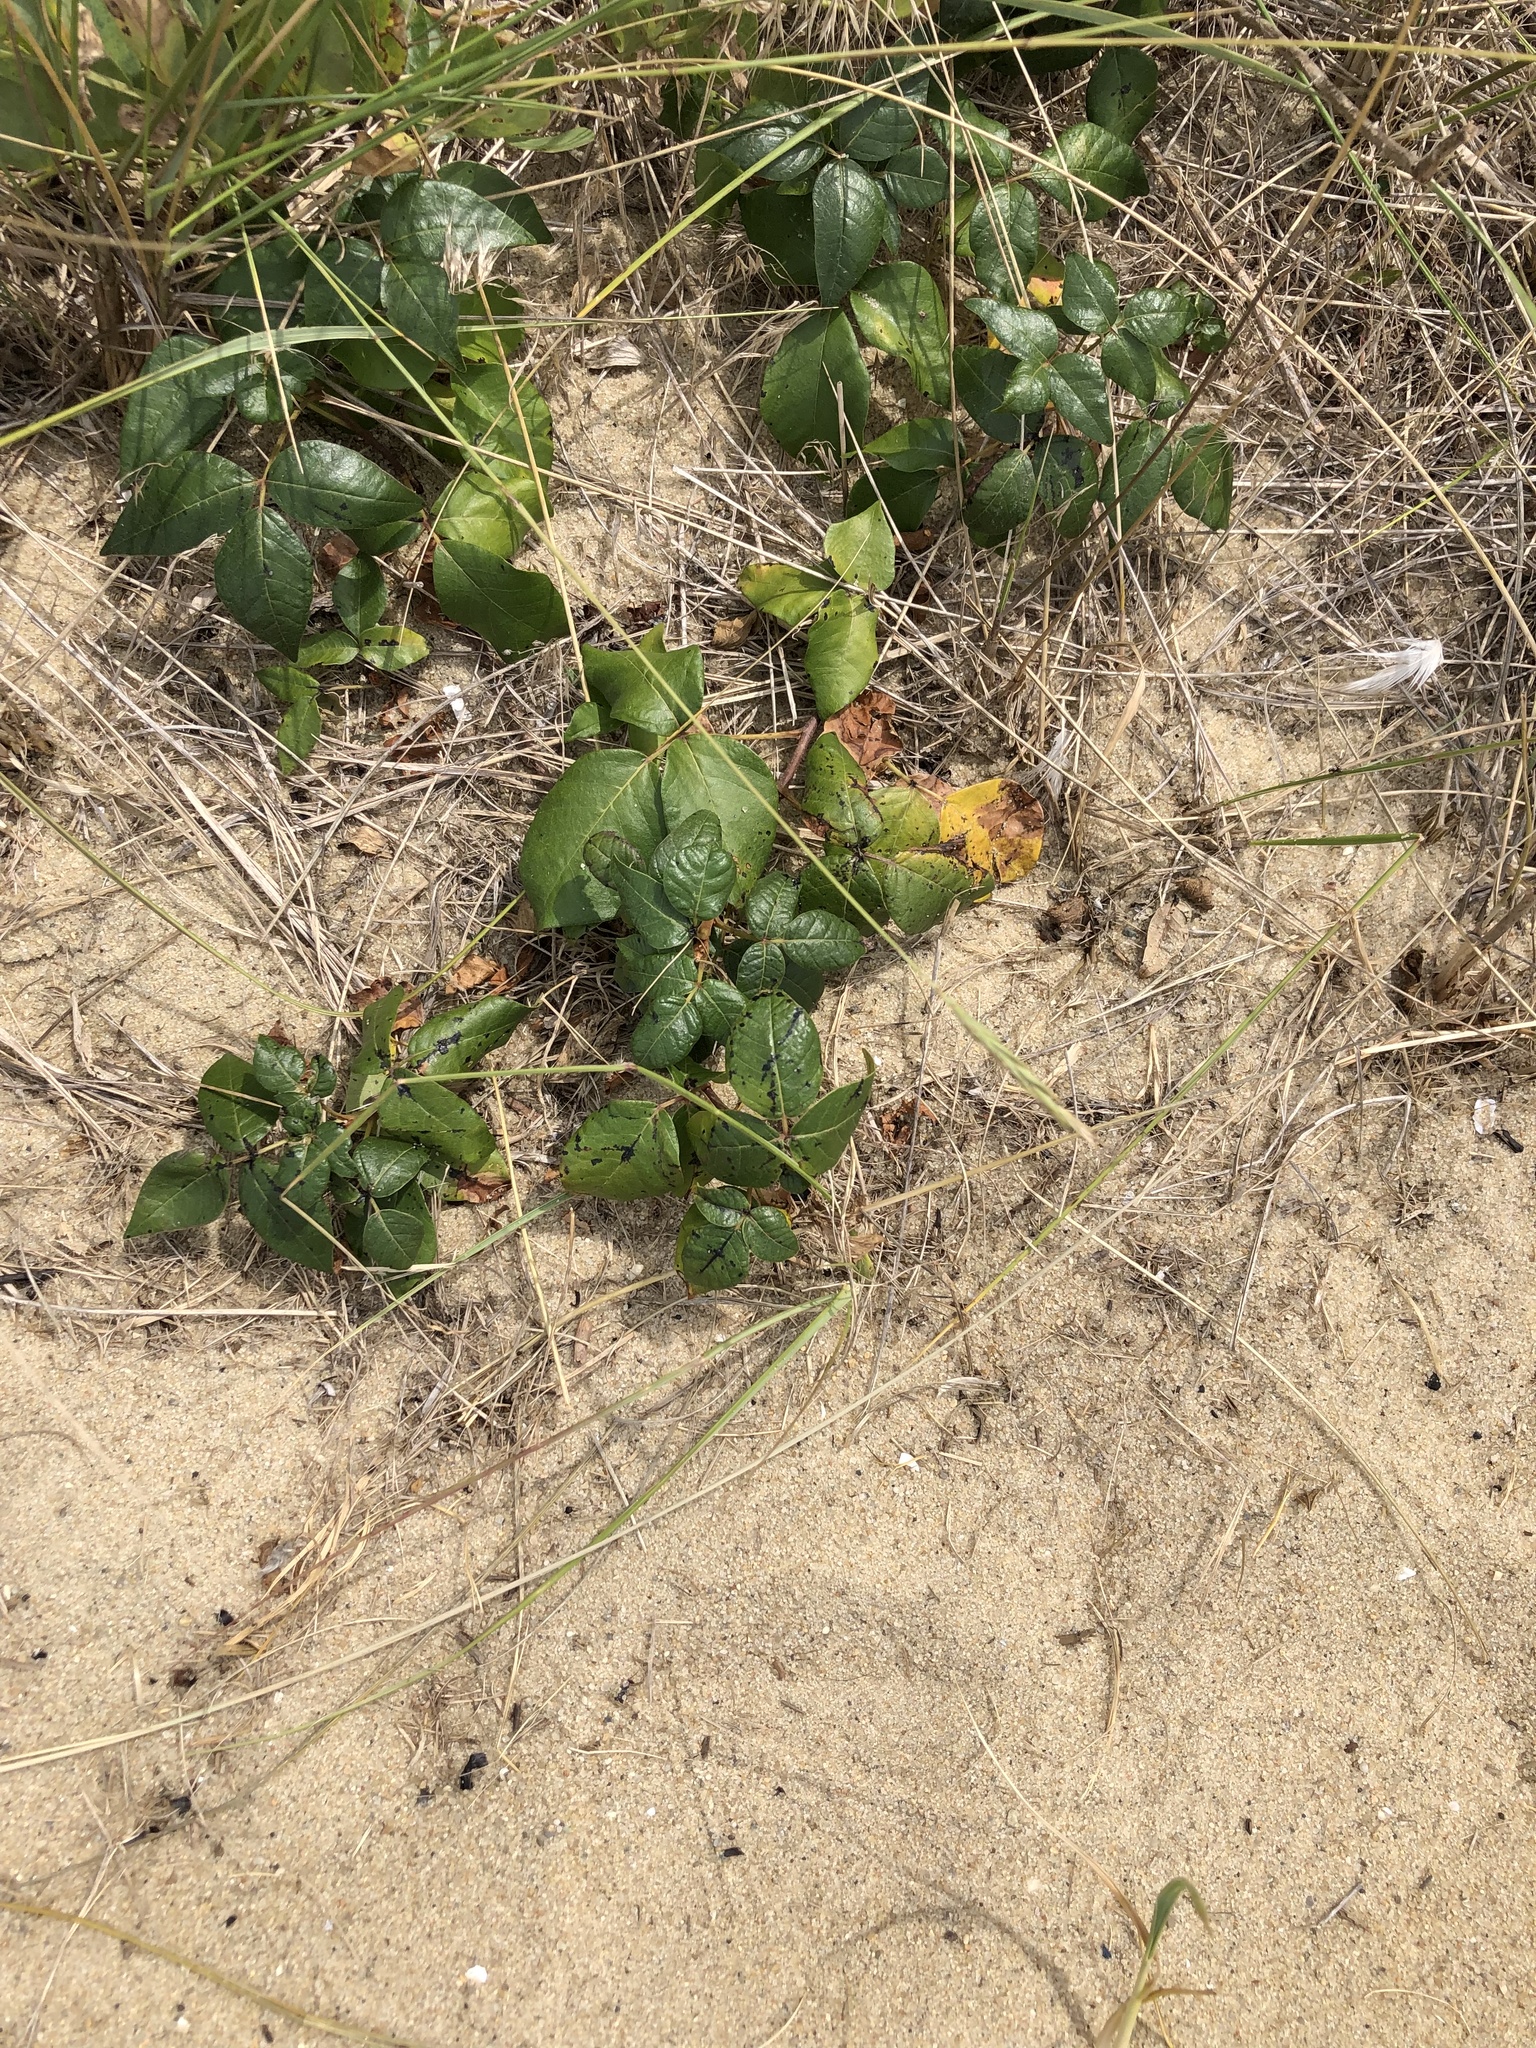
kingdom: Plantae
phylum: Tracheophyta
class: Magnoliopsida
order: Sapindales
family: Anacardiaceae
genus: Toxicodendron
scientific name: Toxicodendron radicans
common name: Poison ivy
